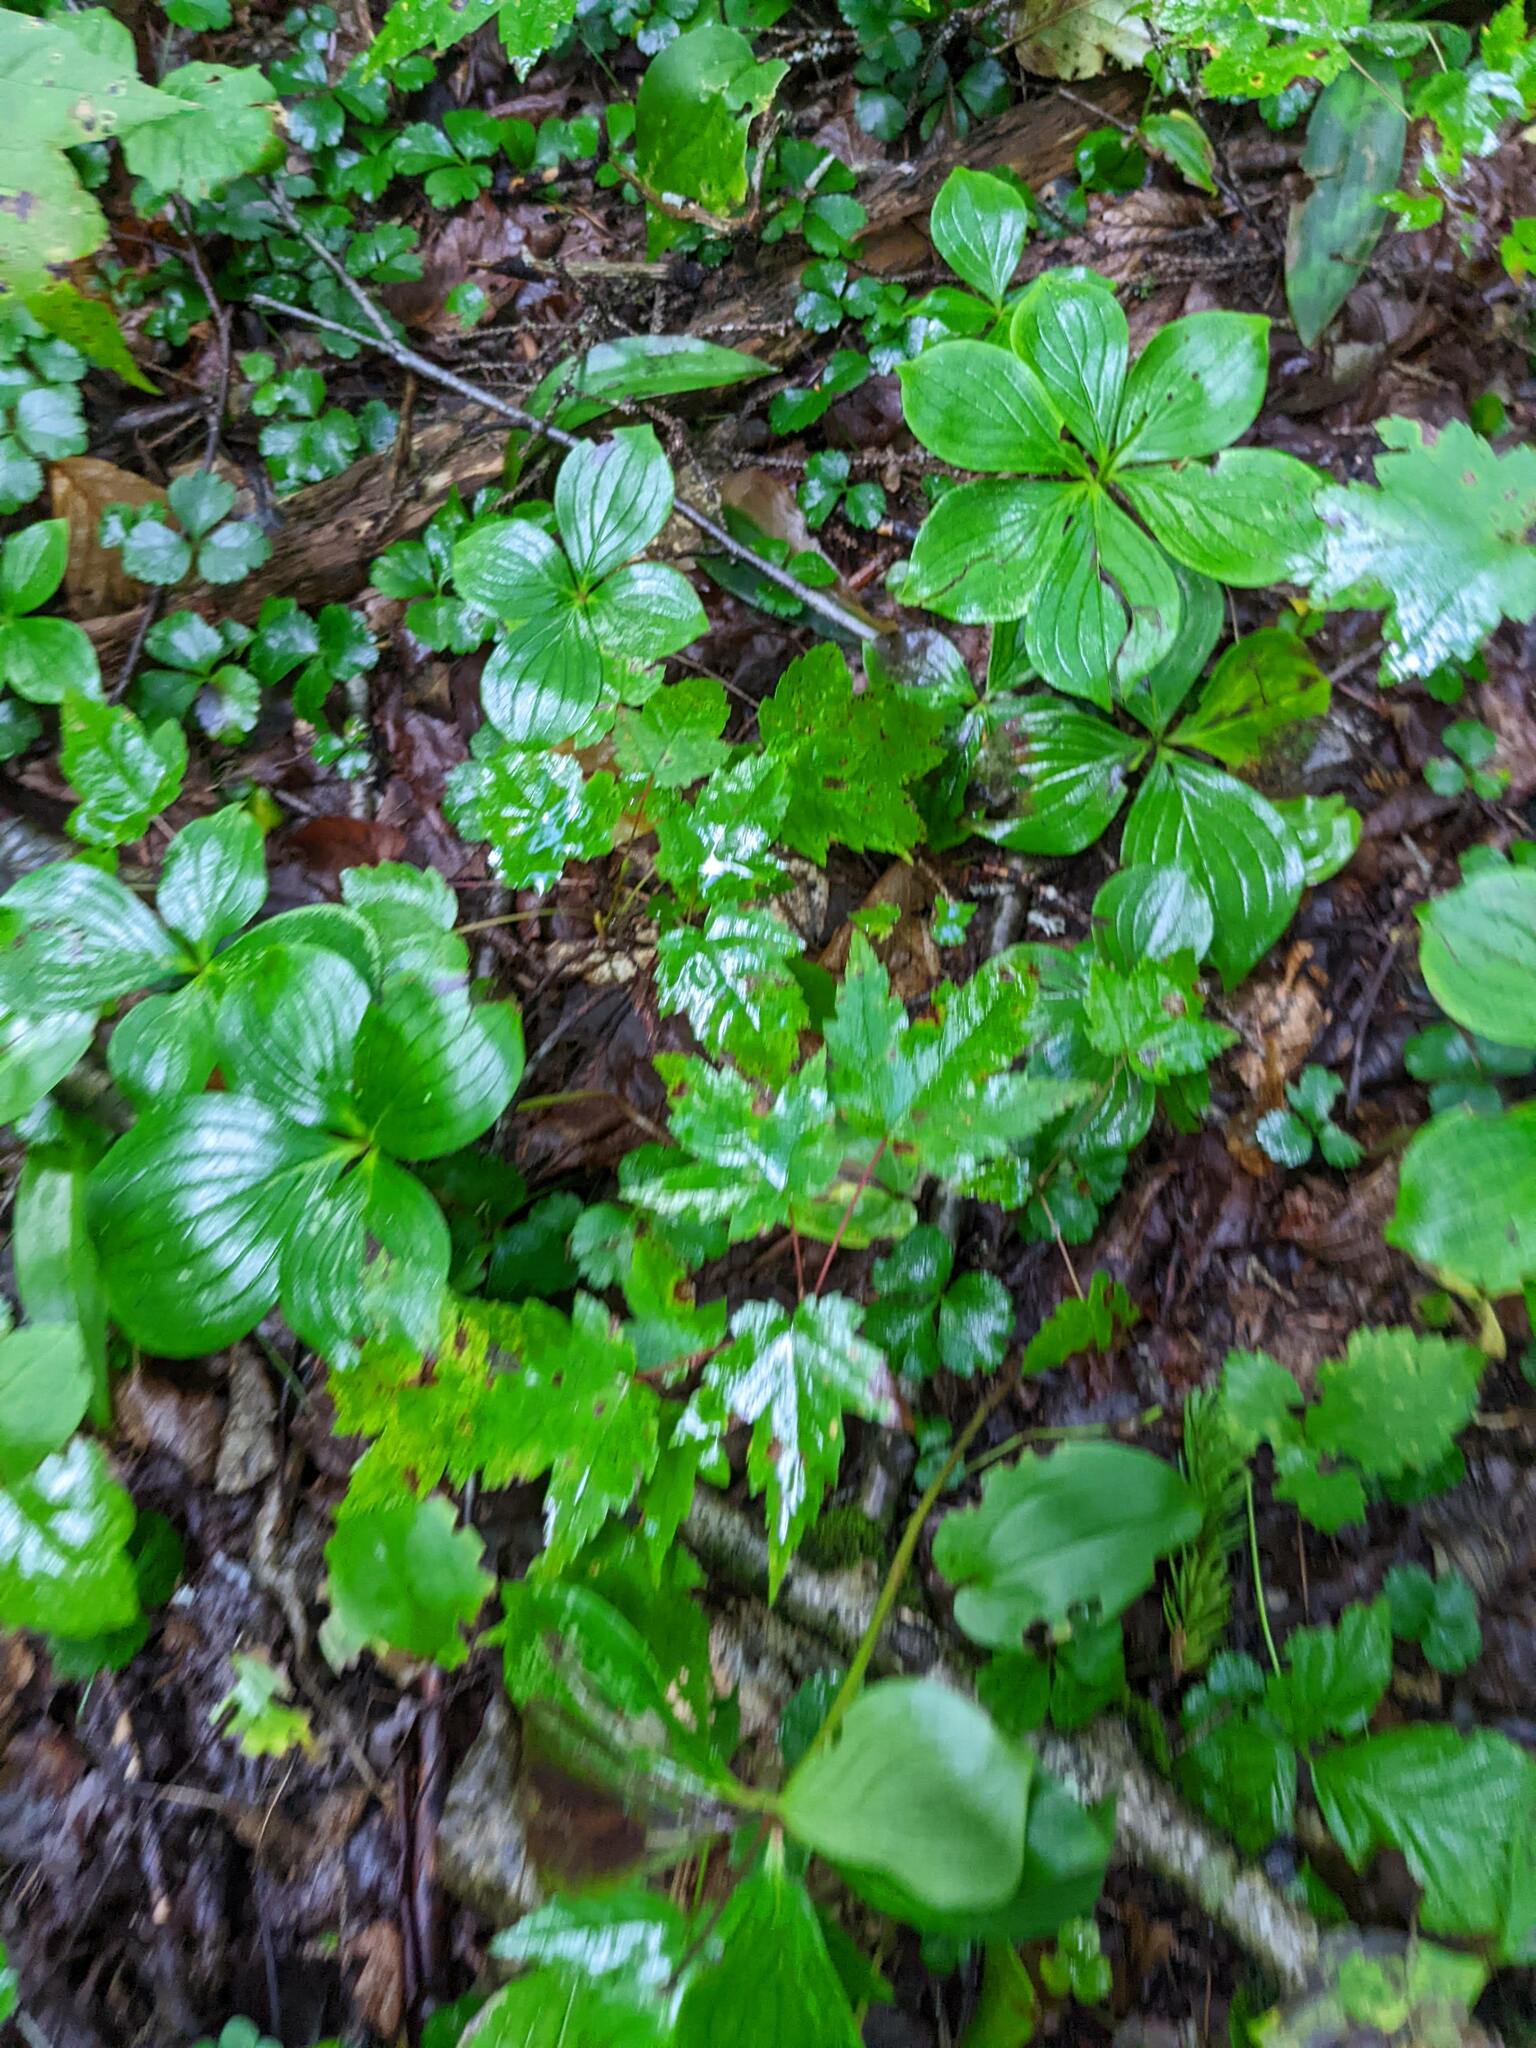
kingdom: Plantae
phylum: Tracheophyta
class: Magnoliopsida
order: Sapindales
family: Sapindaceae
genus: Acer
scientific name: Acer rubrum
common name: Red maple
